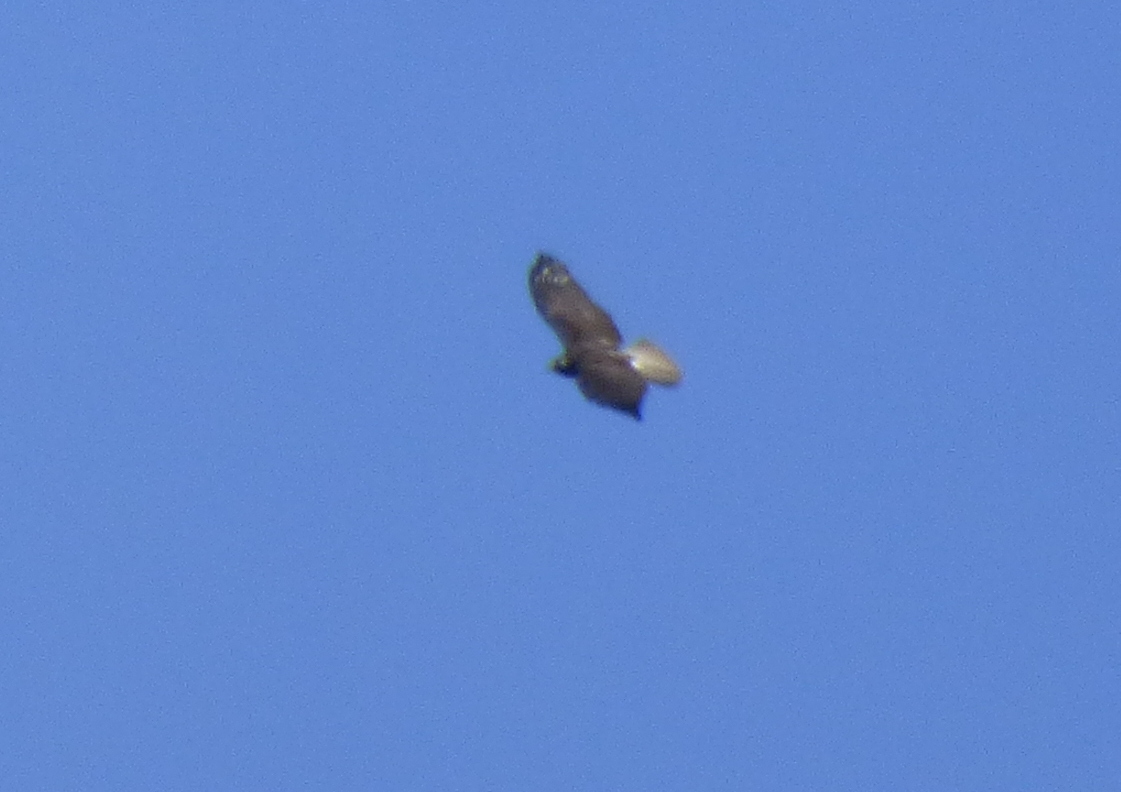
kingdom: Animalia
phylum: Chordata
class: Aves
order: Accipitriformes
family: Accipitridae
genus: Buteo
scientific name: Buteo albicaudatus
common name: White-tailed hawk
